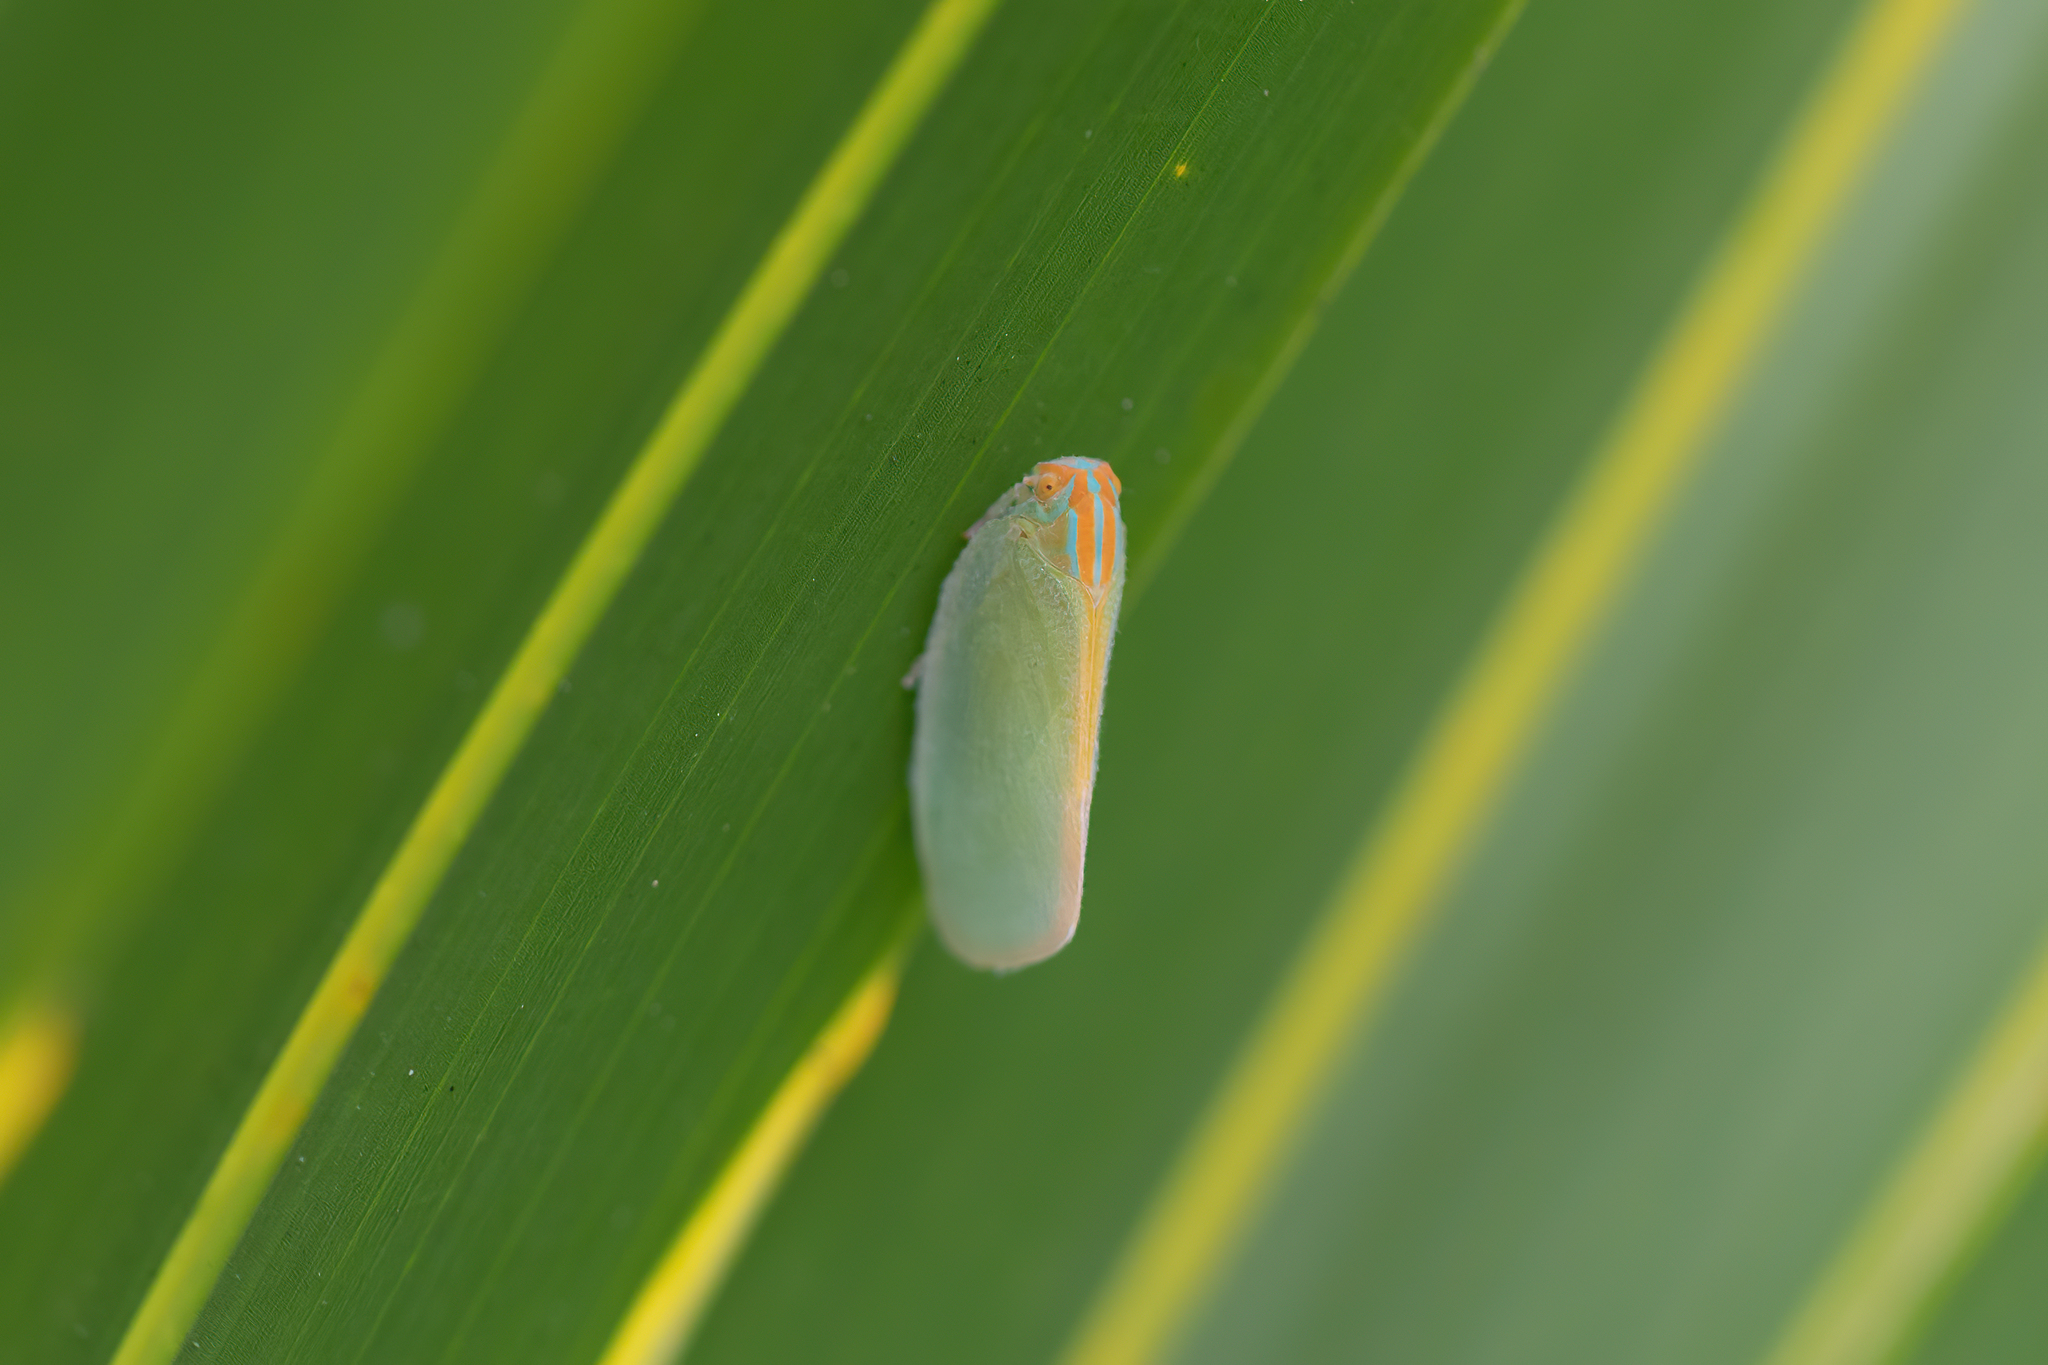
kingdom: Animalia
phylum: Arthropoda
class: Insecta
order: Hemiptera
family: Flatidae
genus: Ormenaria
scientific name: Ormenaria rufifascia
